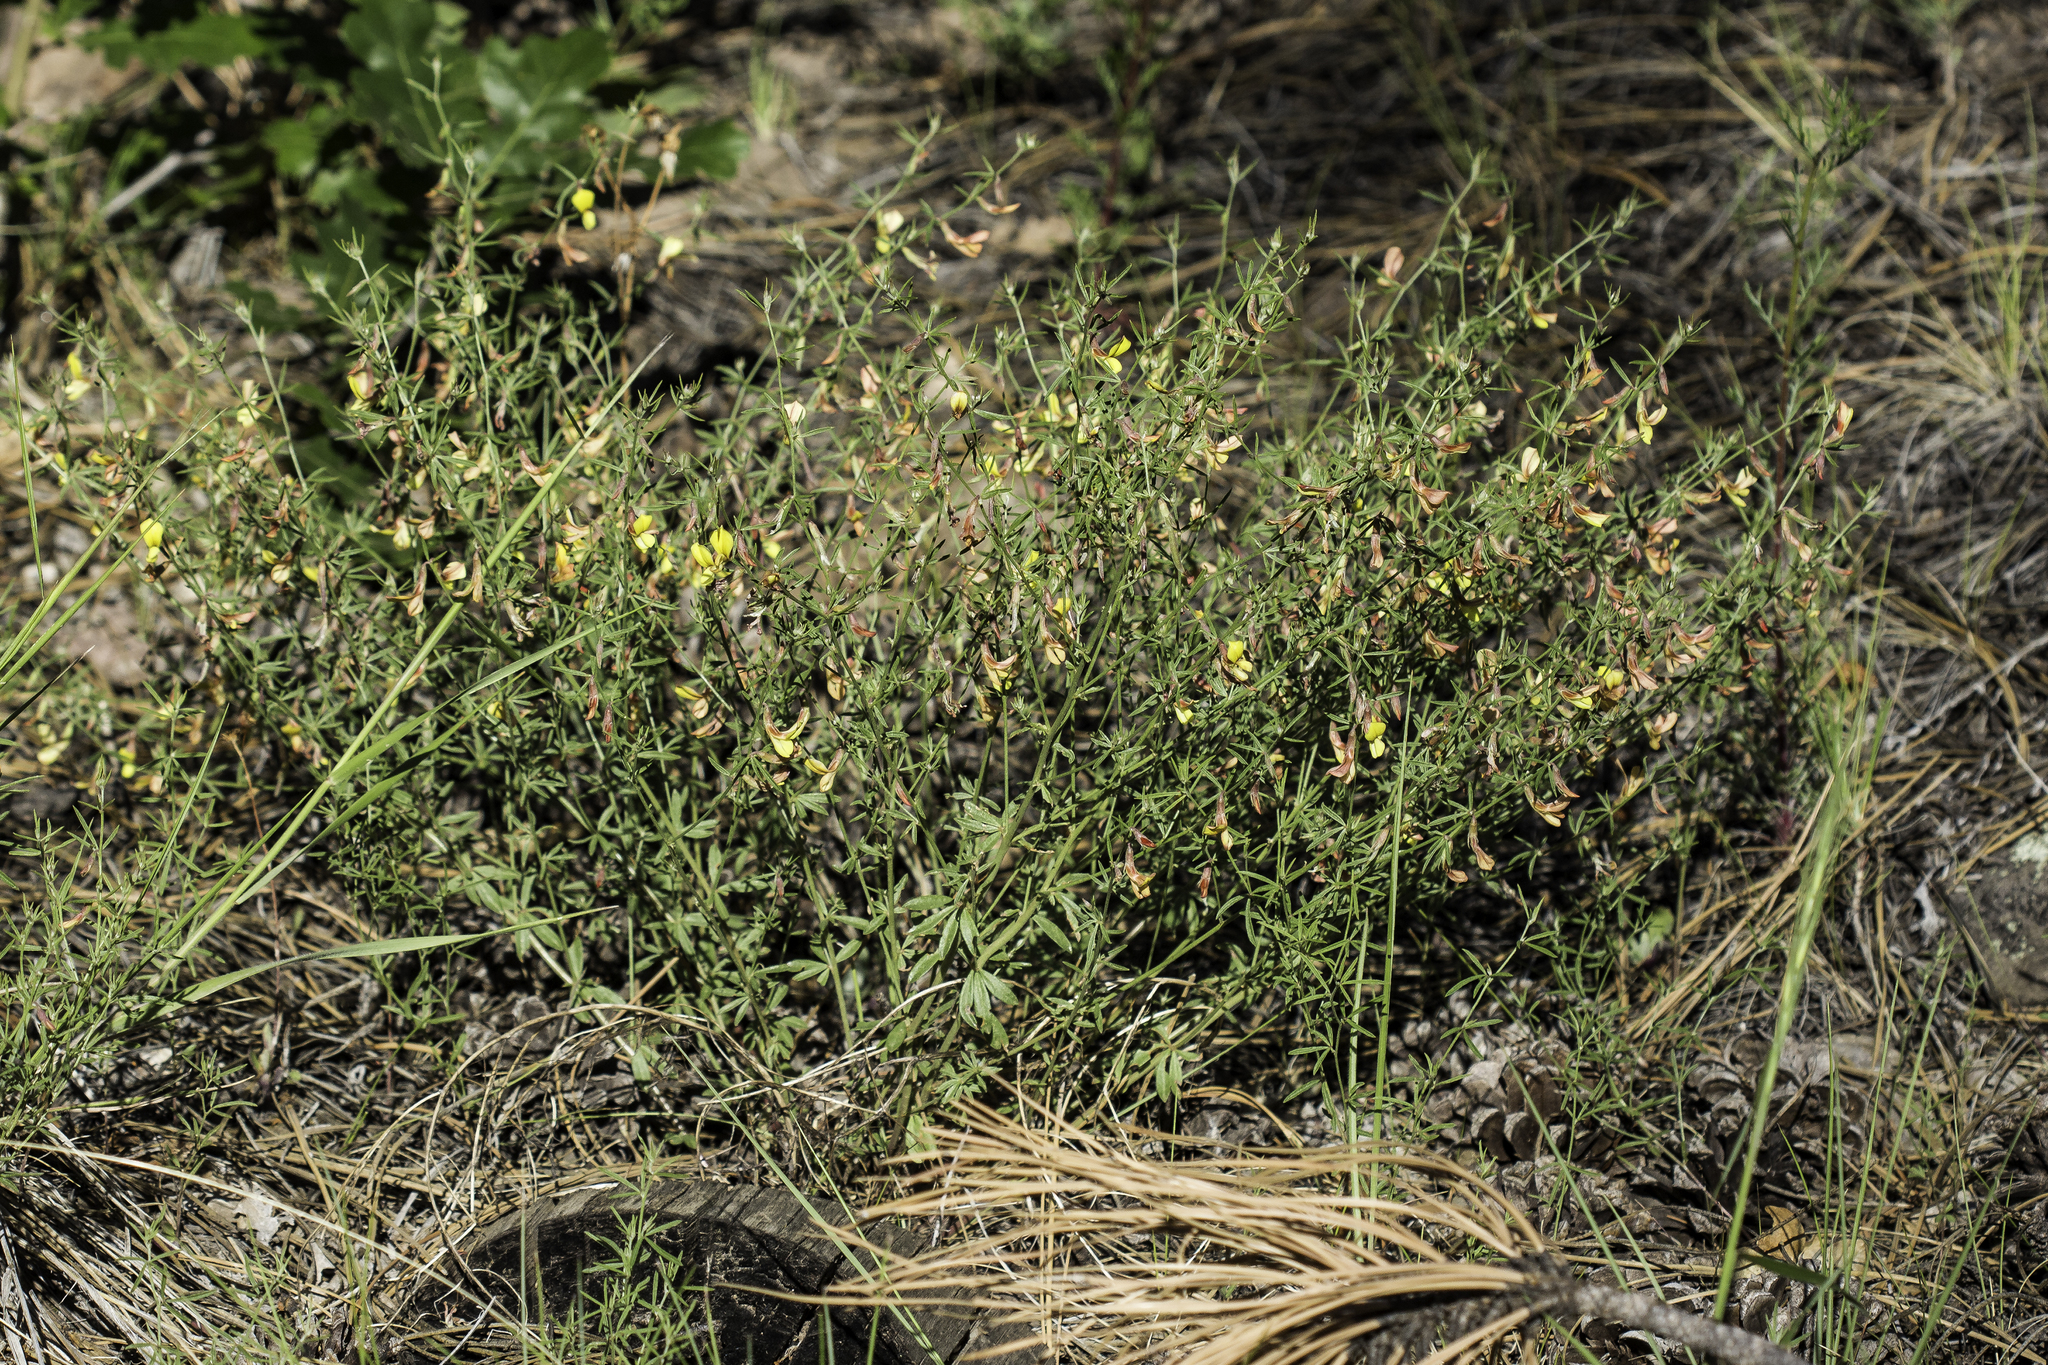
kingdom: Plantae
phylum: Tracheophyta
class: Magnoliopsida
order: Fabales
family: Fabaceae
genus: Acmispon
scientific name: Acmispon wrightii
